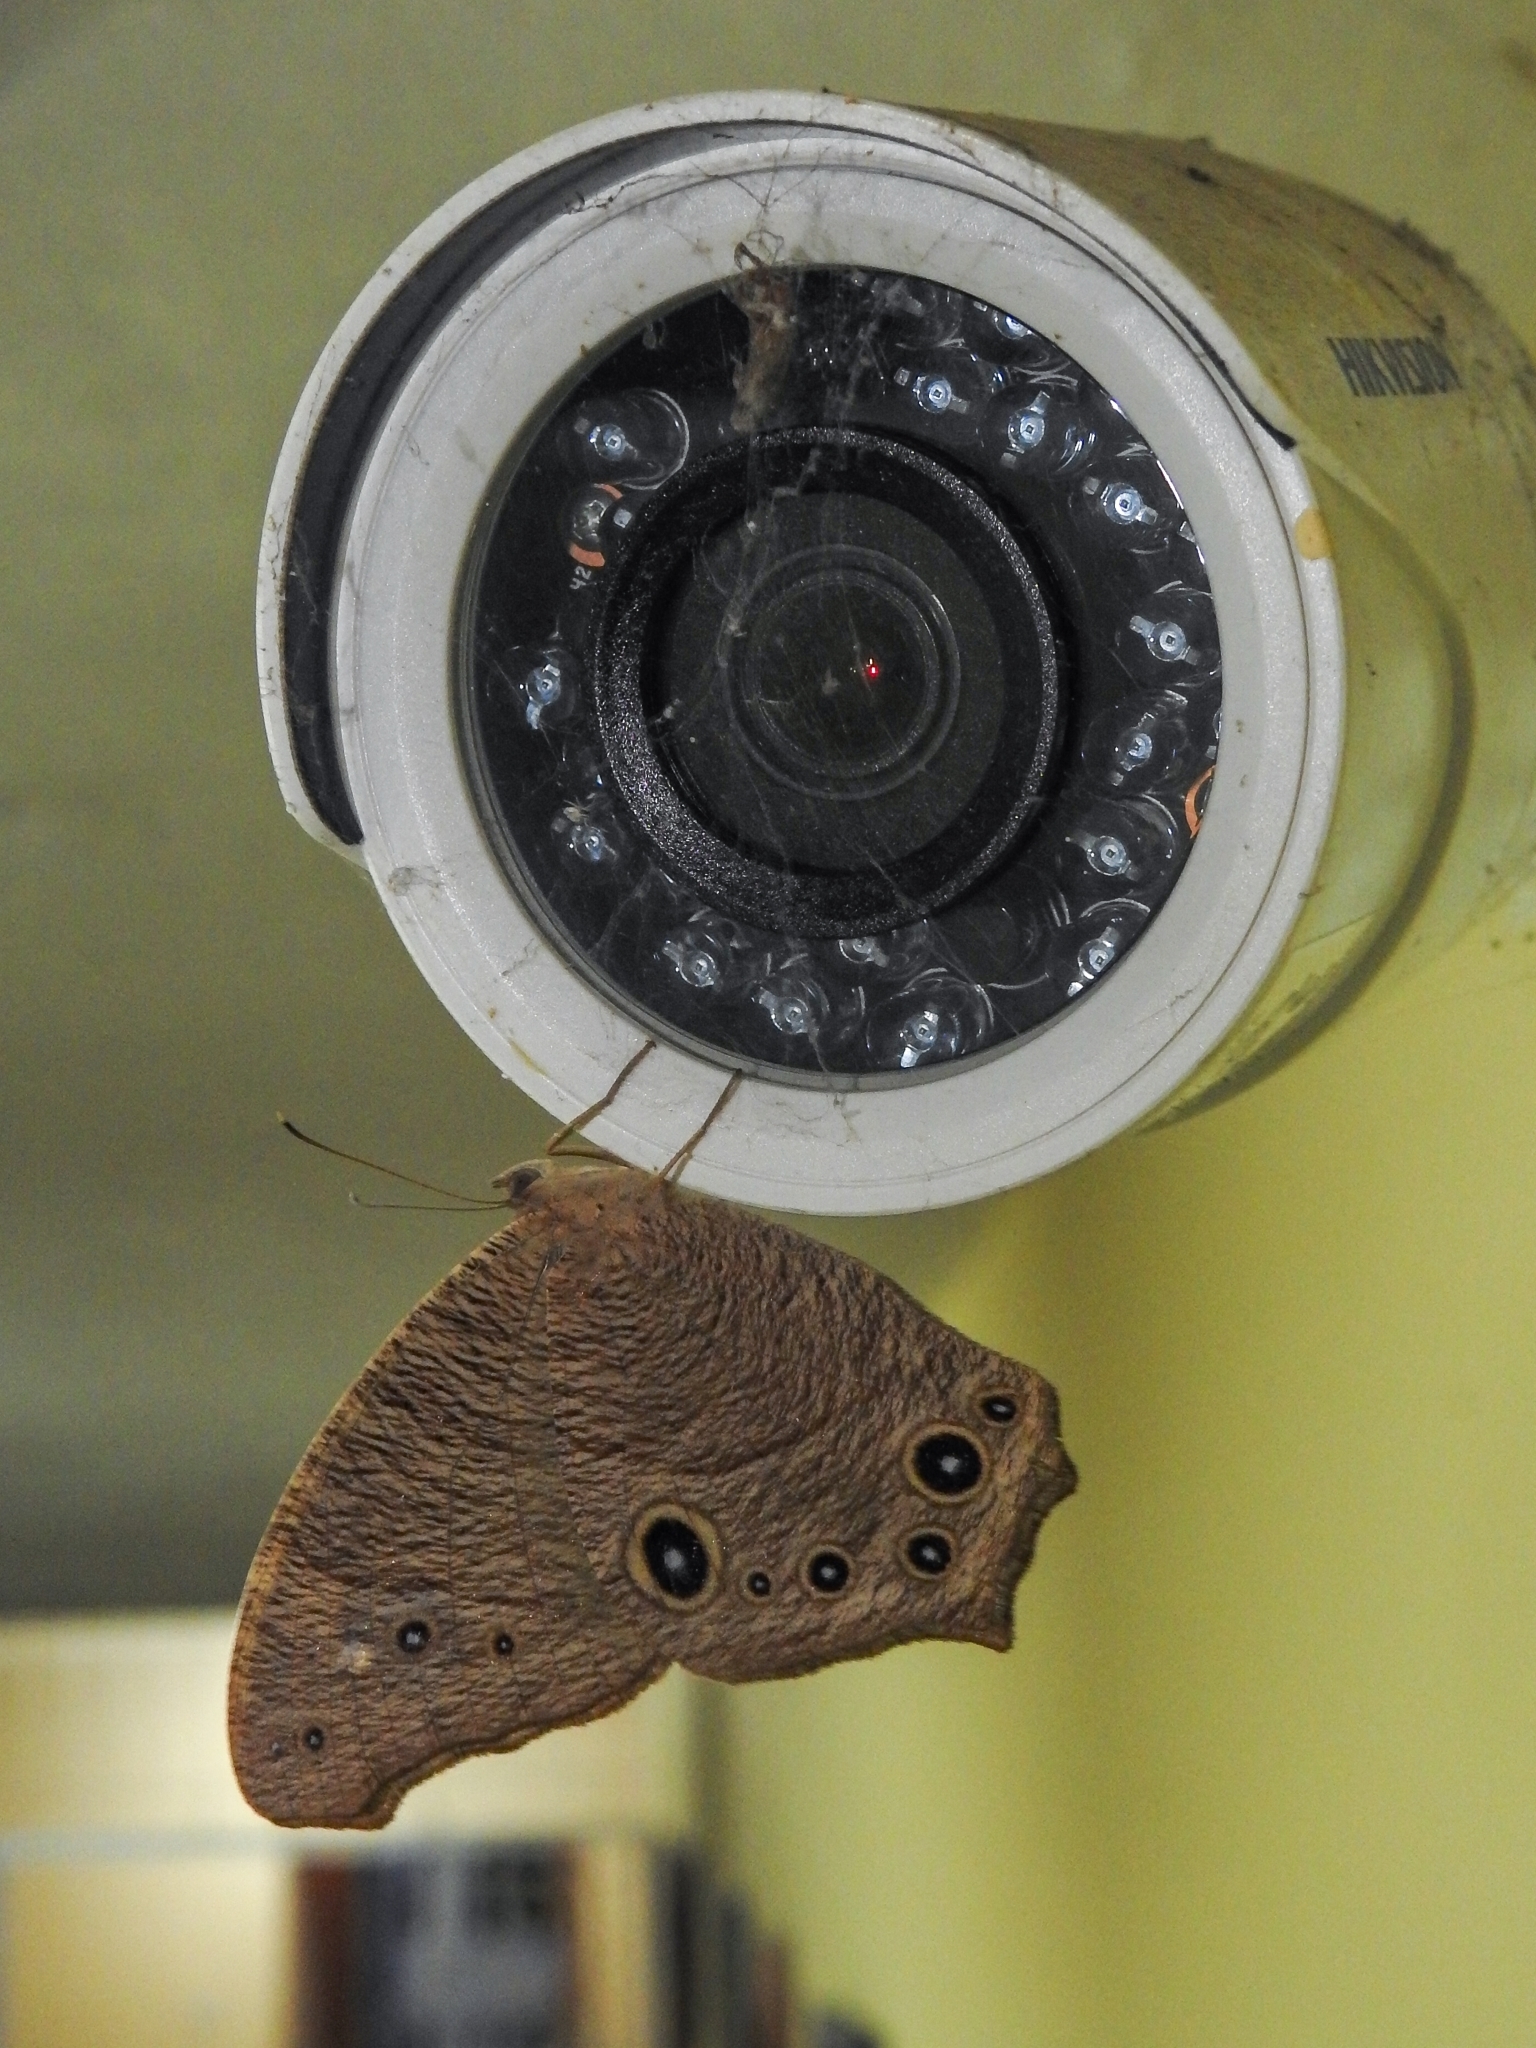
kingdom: Animalia
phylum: Arthropoda
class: Insecta
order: Lepidoptera
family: Nymphalidae
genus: Melanitis
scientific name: Melanitis leda
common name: Twilight brown
